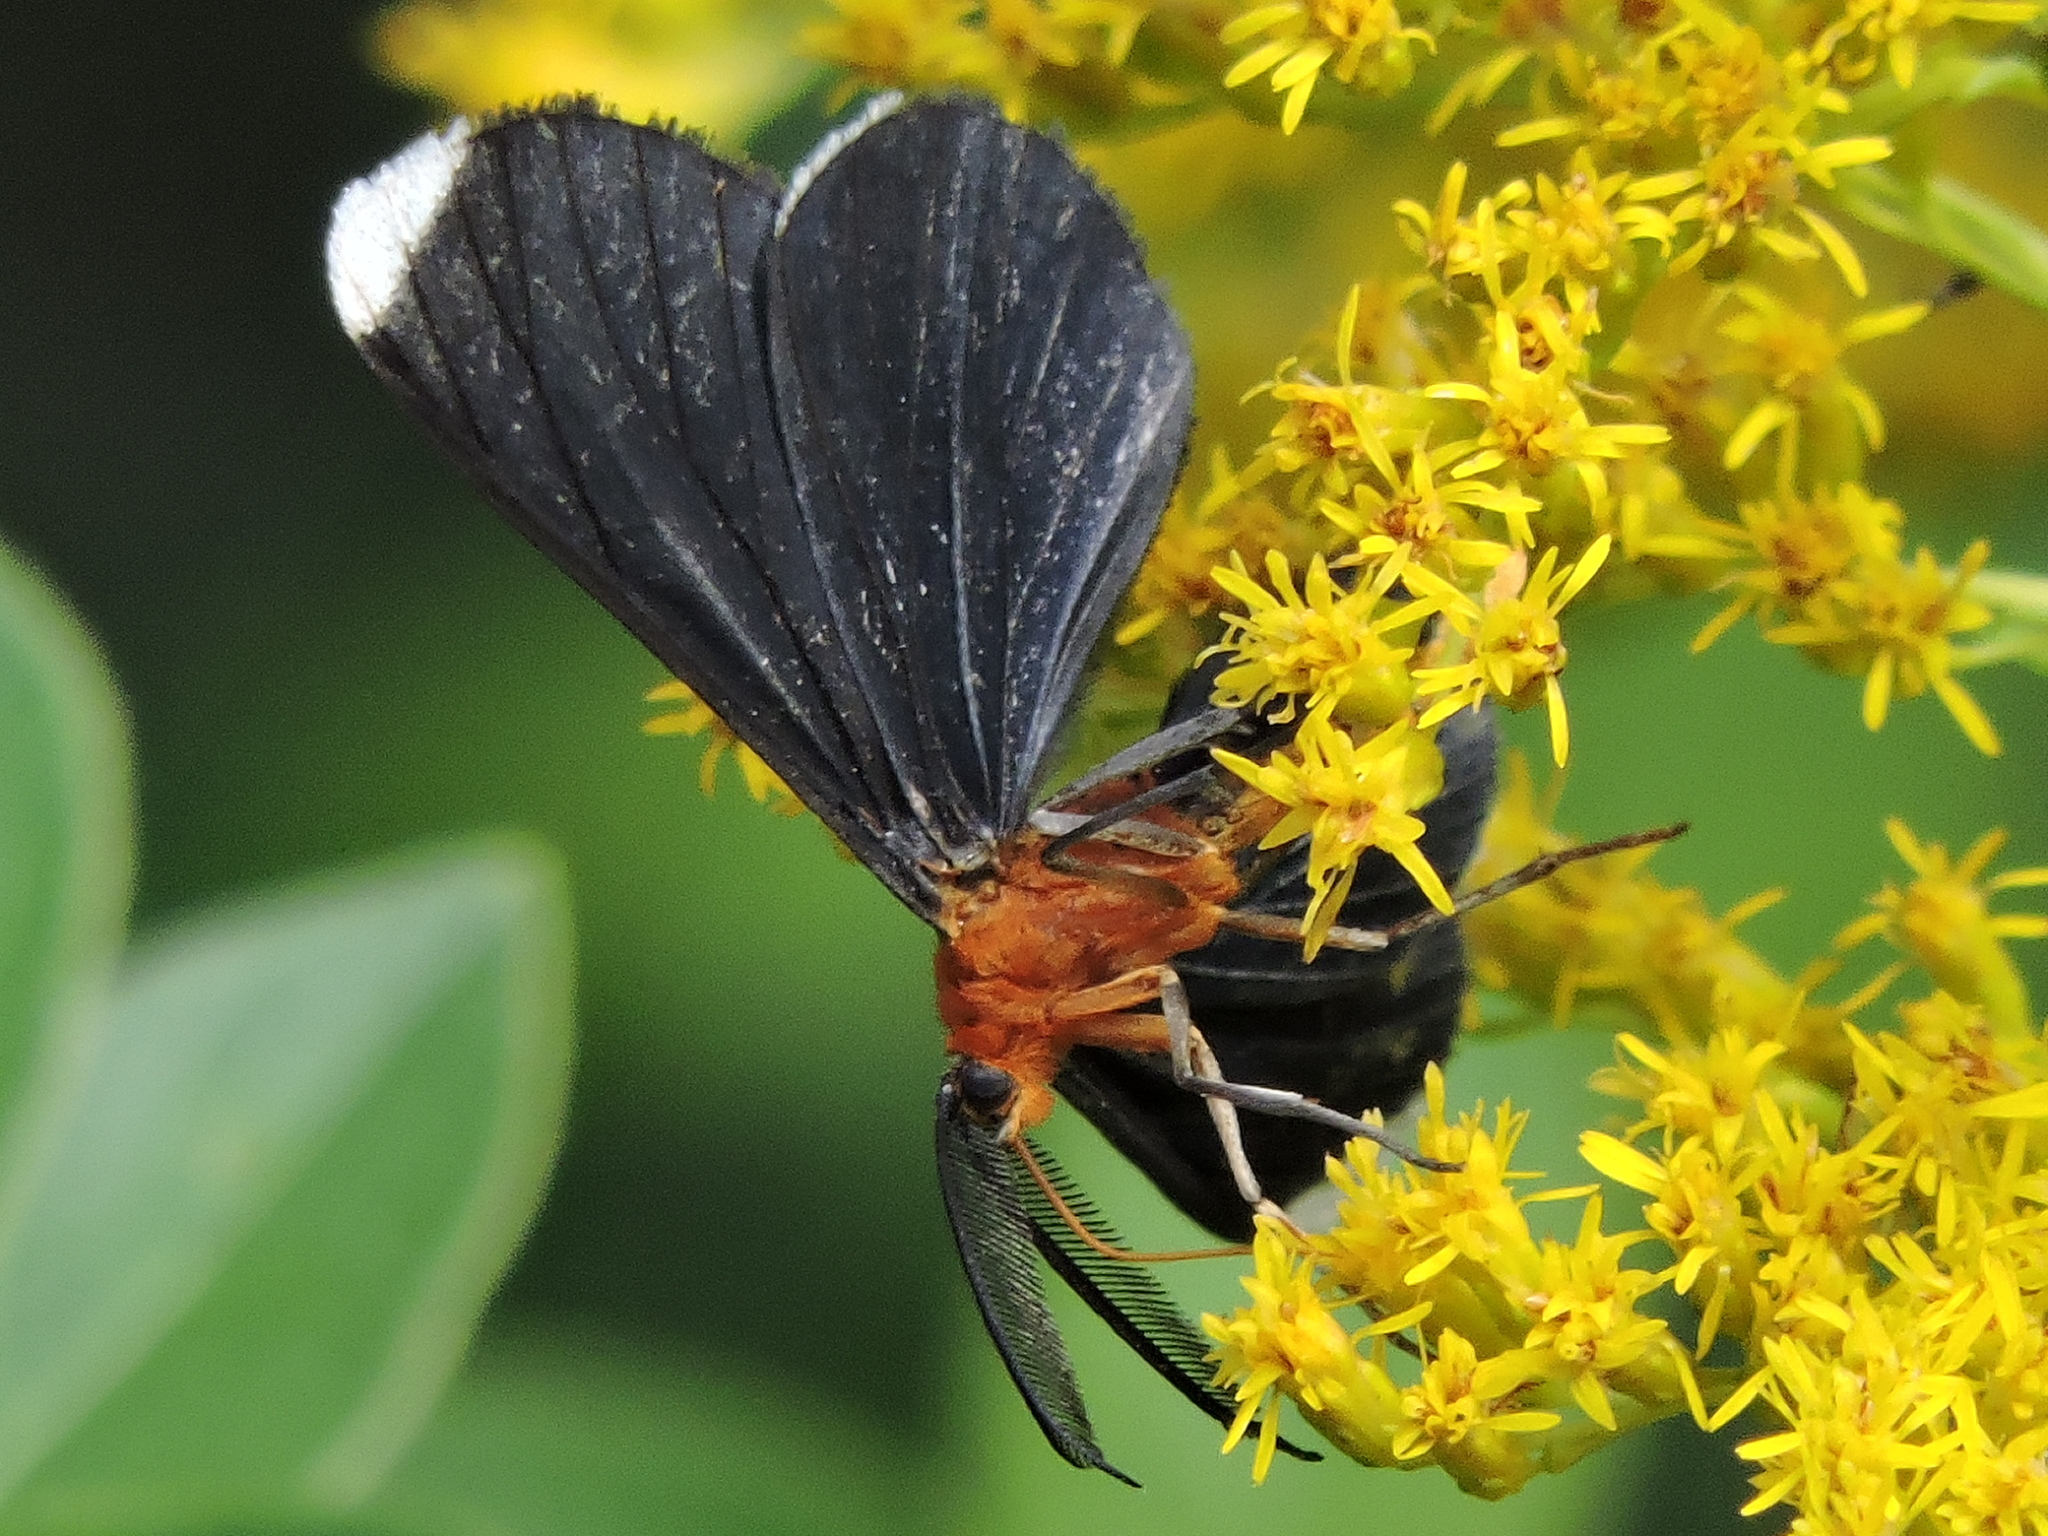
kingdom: Animalia
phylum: Arthropoda
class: Insecta
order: Lepidoptera
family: Geometridae
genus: Melanchroia
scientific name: Melanchroia chephise
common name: White-tipped black
